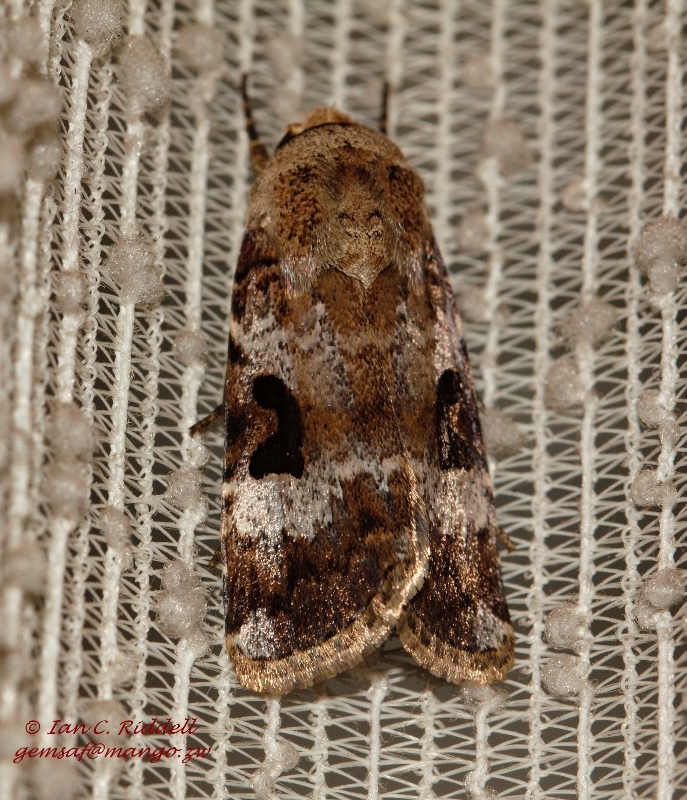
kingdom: Animalia
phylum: Arthropoda
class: Insecta
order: Lepidoptera
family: Noctuidae
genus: Spodoptera
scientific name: Spodoptera abyssinia
